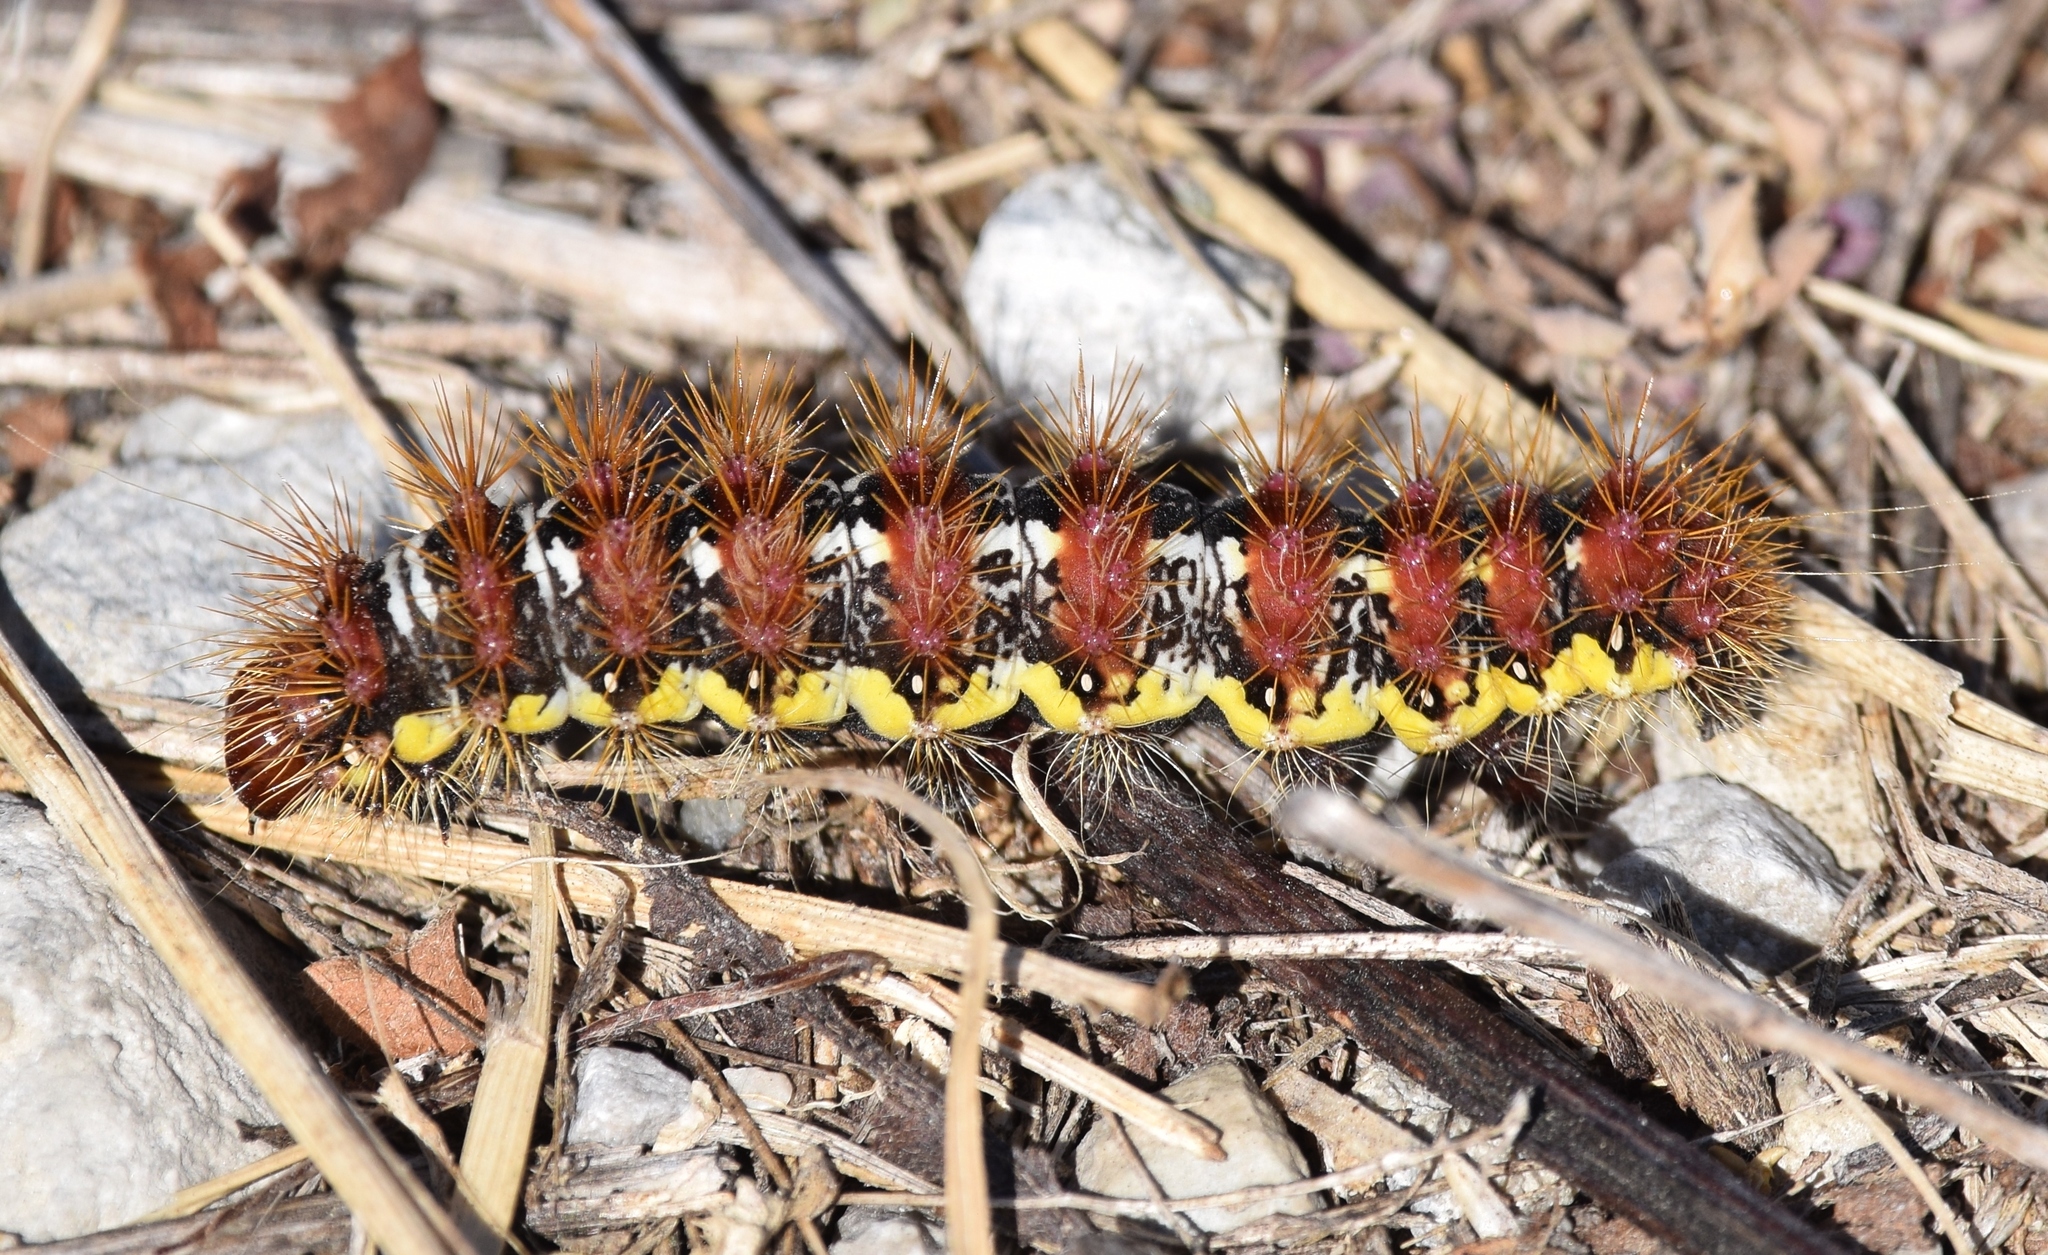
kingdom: Animalia
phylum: Arthropoda
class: Insecta
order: Lepidoptera
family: Noctuidae
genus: Acronicta
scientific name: Acronicta oblinita
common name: Smeared dagger
